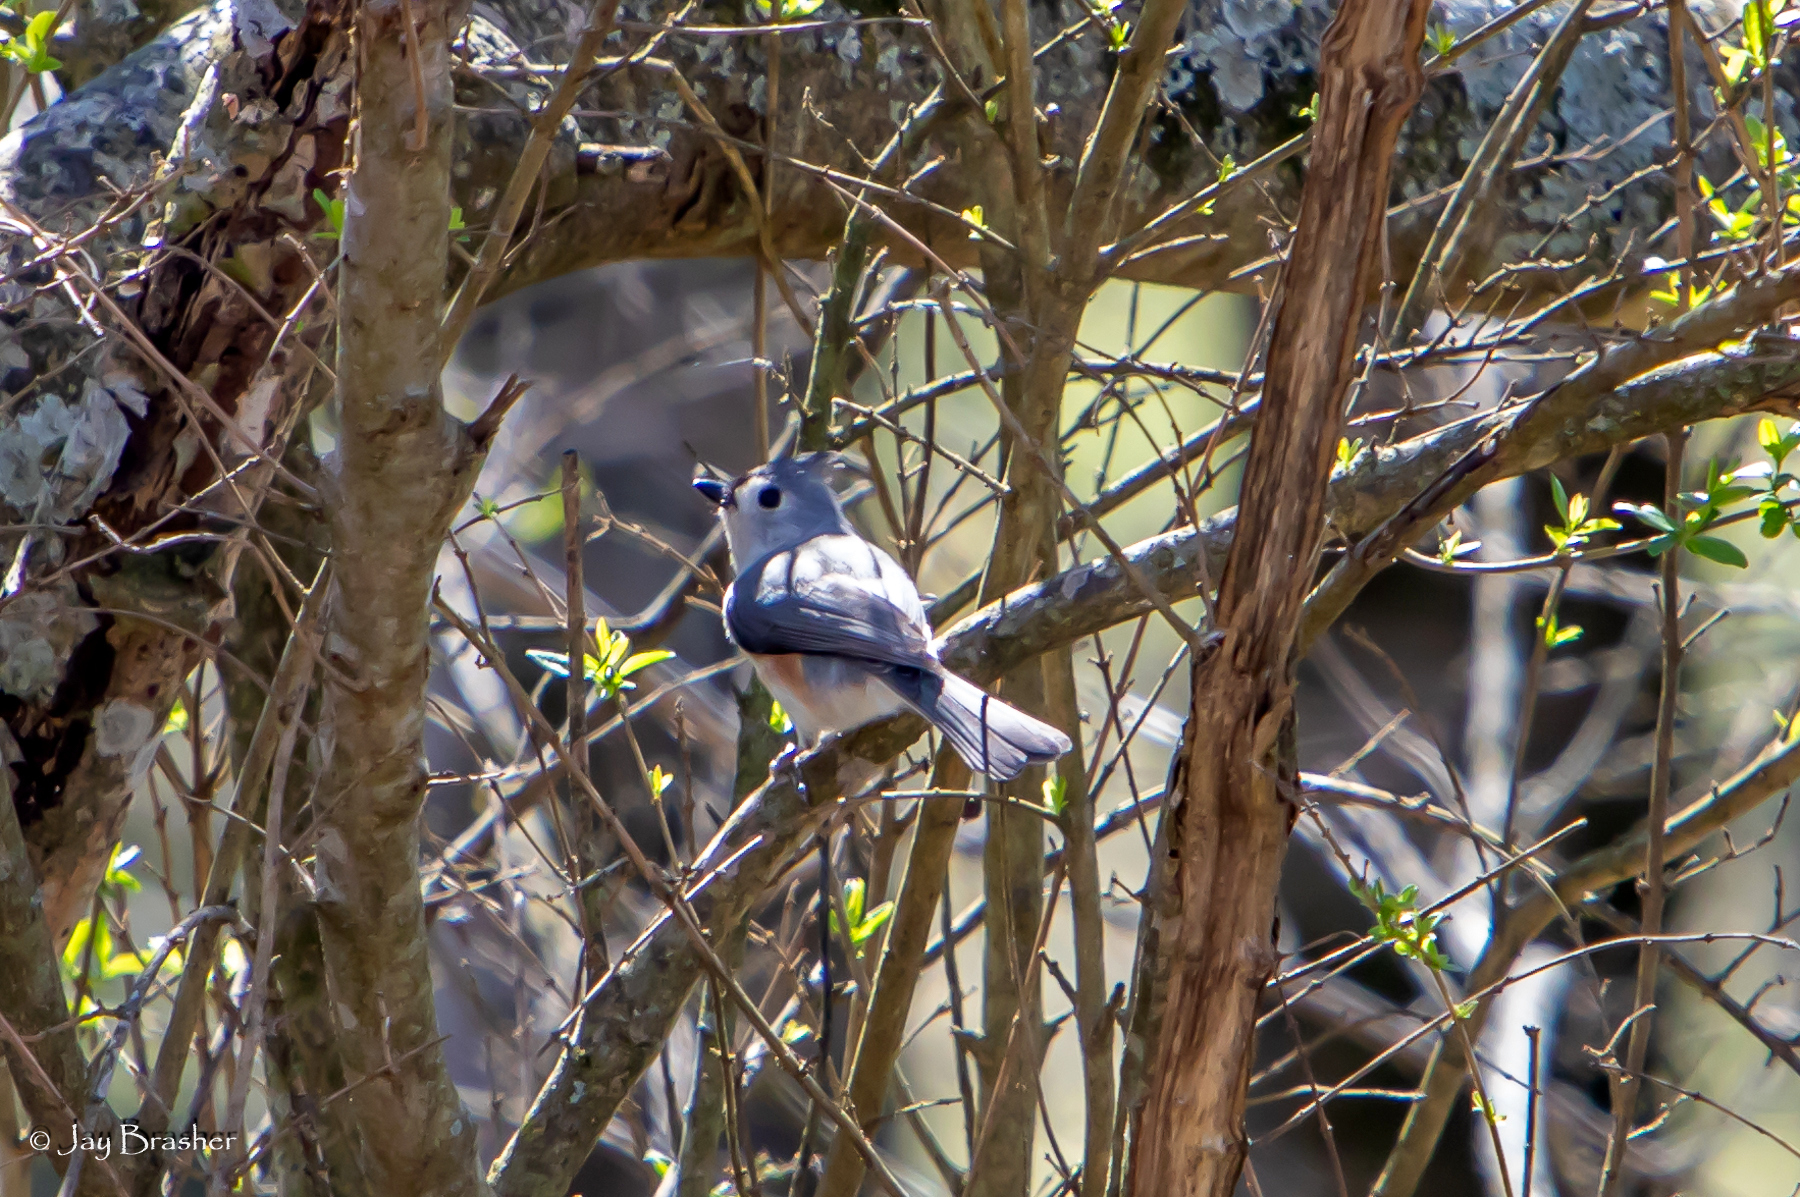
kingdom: Animalia
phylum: Chordata
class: Aves
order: Passeriformes
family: Paridae
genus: Baeolophus
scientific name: Baeolophus bicolor
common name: Tufted titmouse
